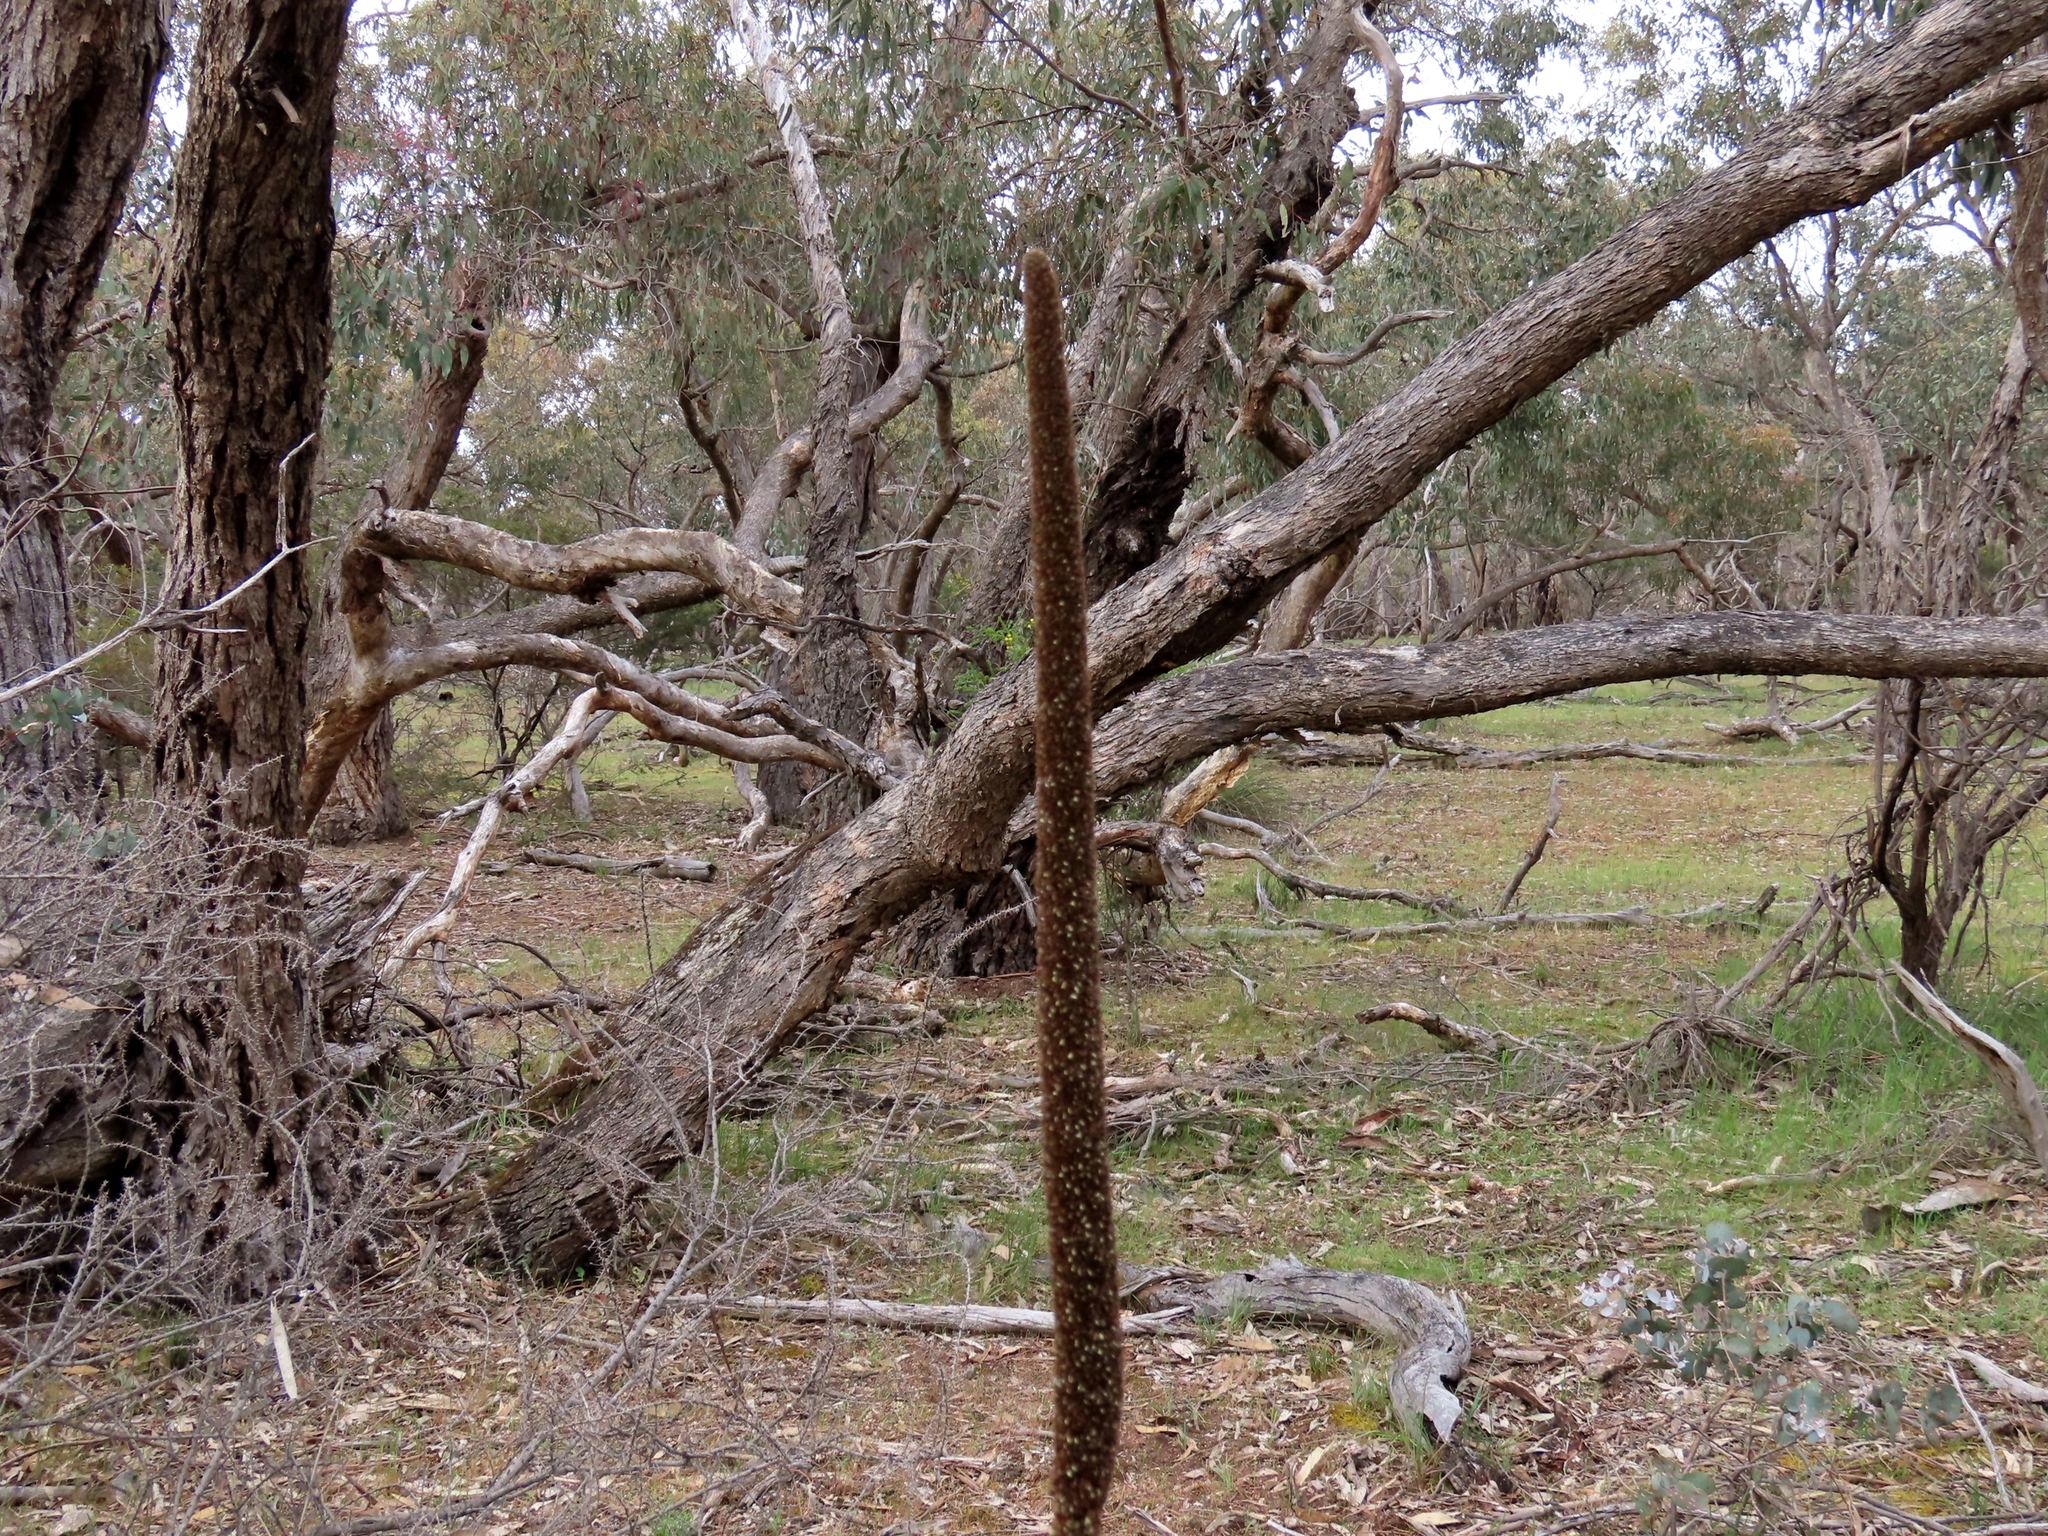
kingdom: Plantae
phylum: Tracheophyta
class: Liliopsida
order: Asparagales
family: Asphodelaceae
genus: Xanthorrhoea
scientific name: Xanthorrhoea minor
